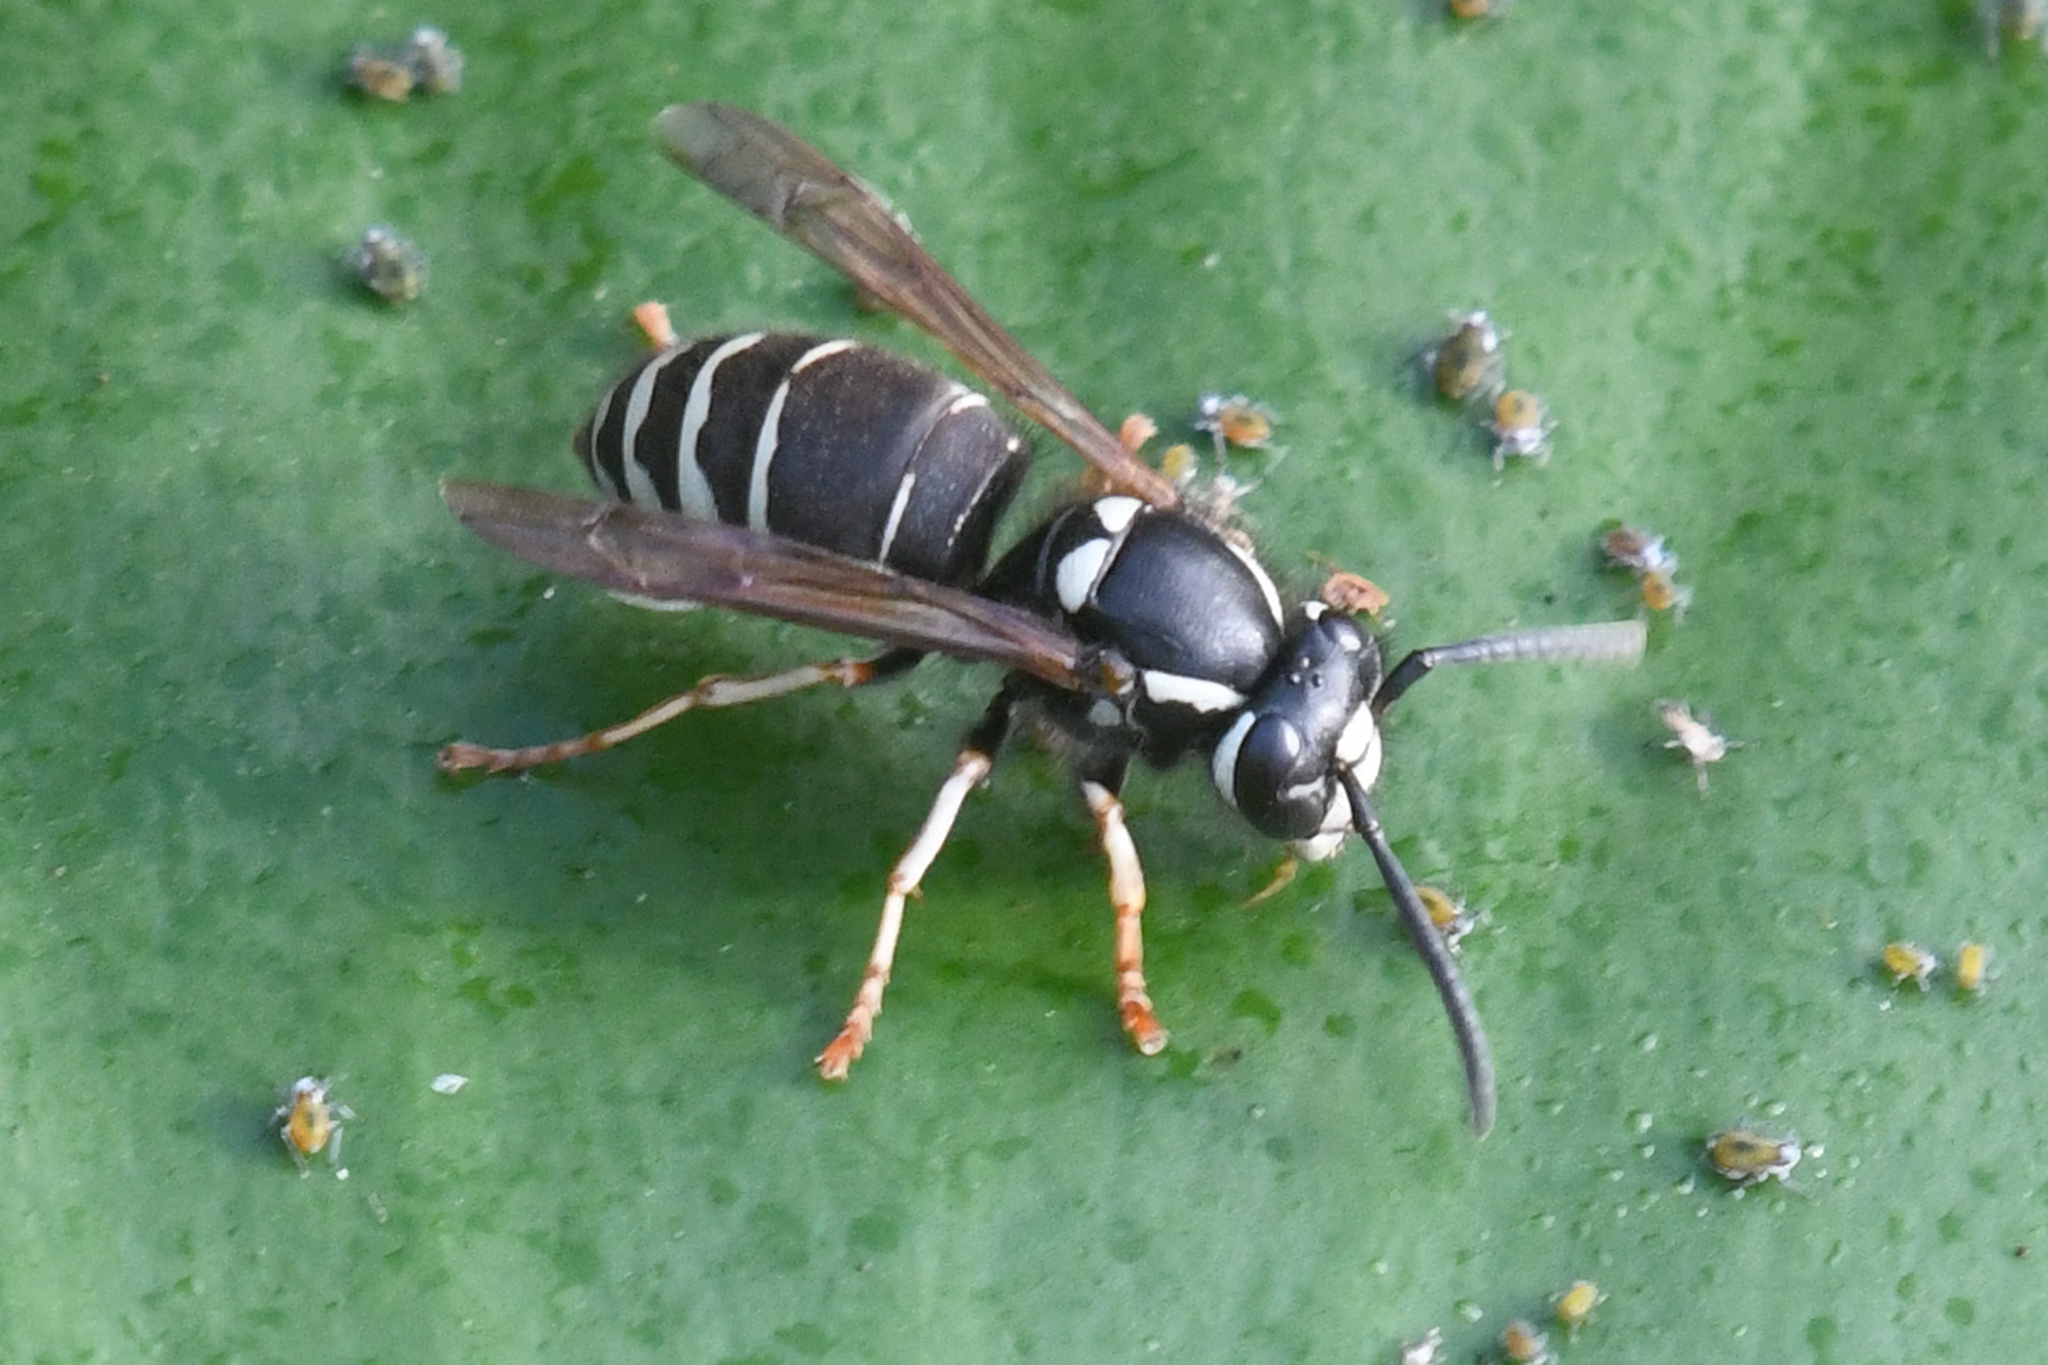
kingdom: Animalia
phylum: Arthropoda
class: Insecta
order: Hymenoptera
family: Vespidae
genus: Vespula
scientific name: Vespula consobrina
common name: Blackjacket
